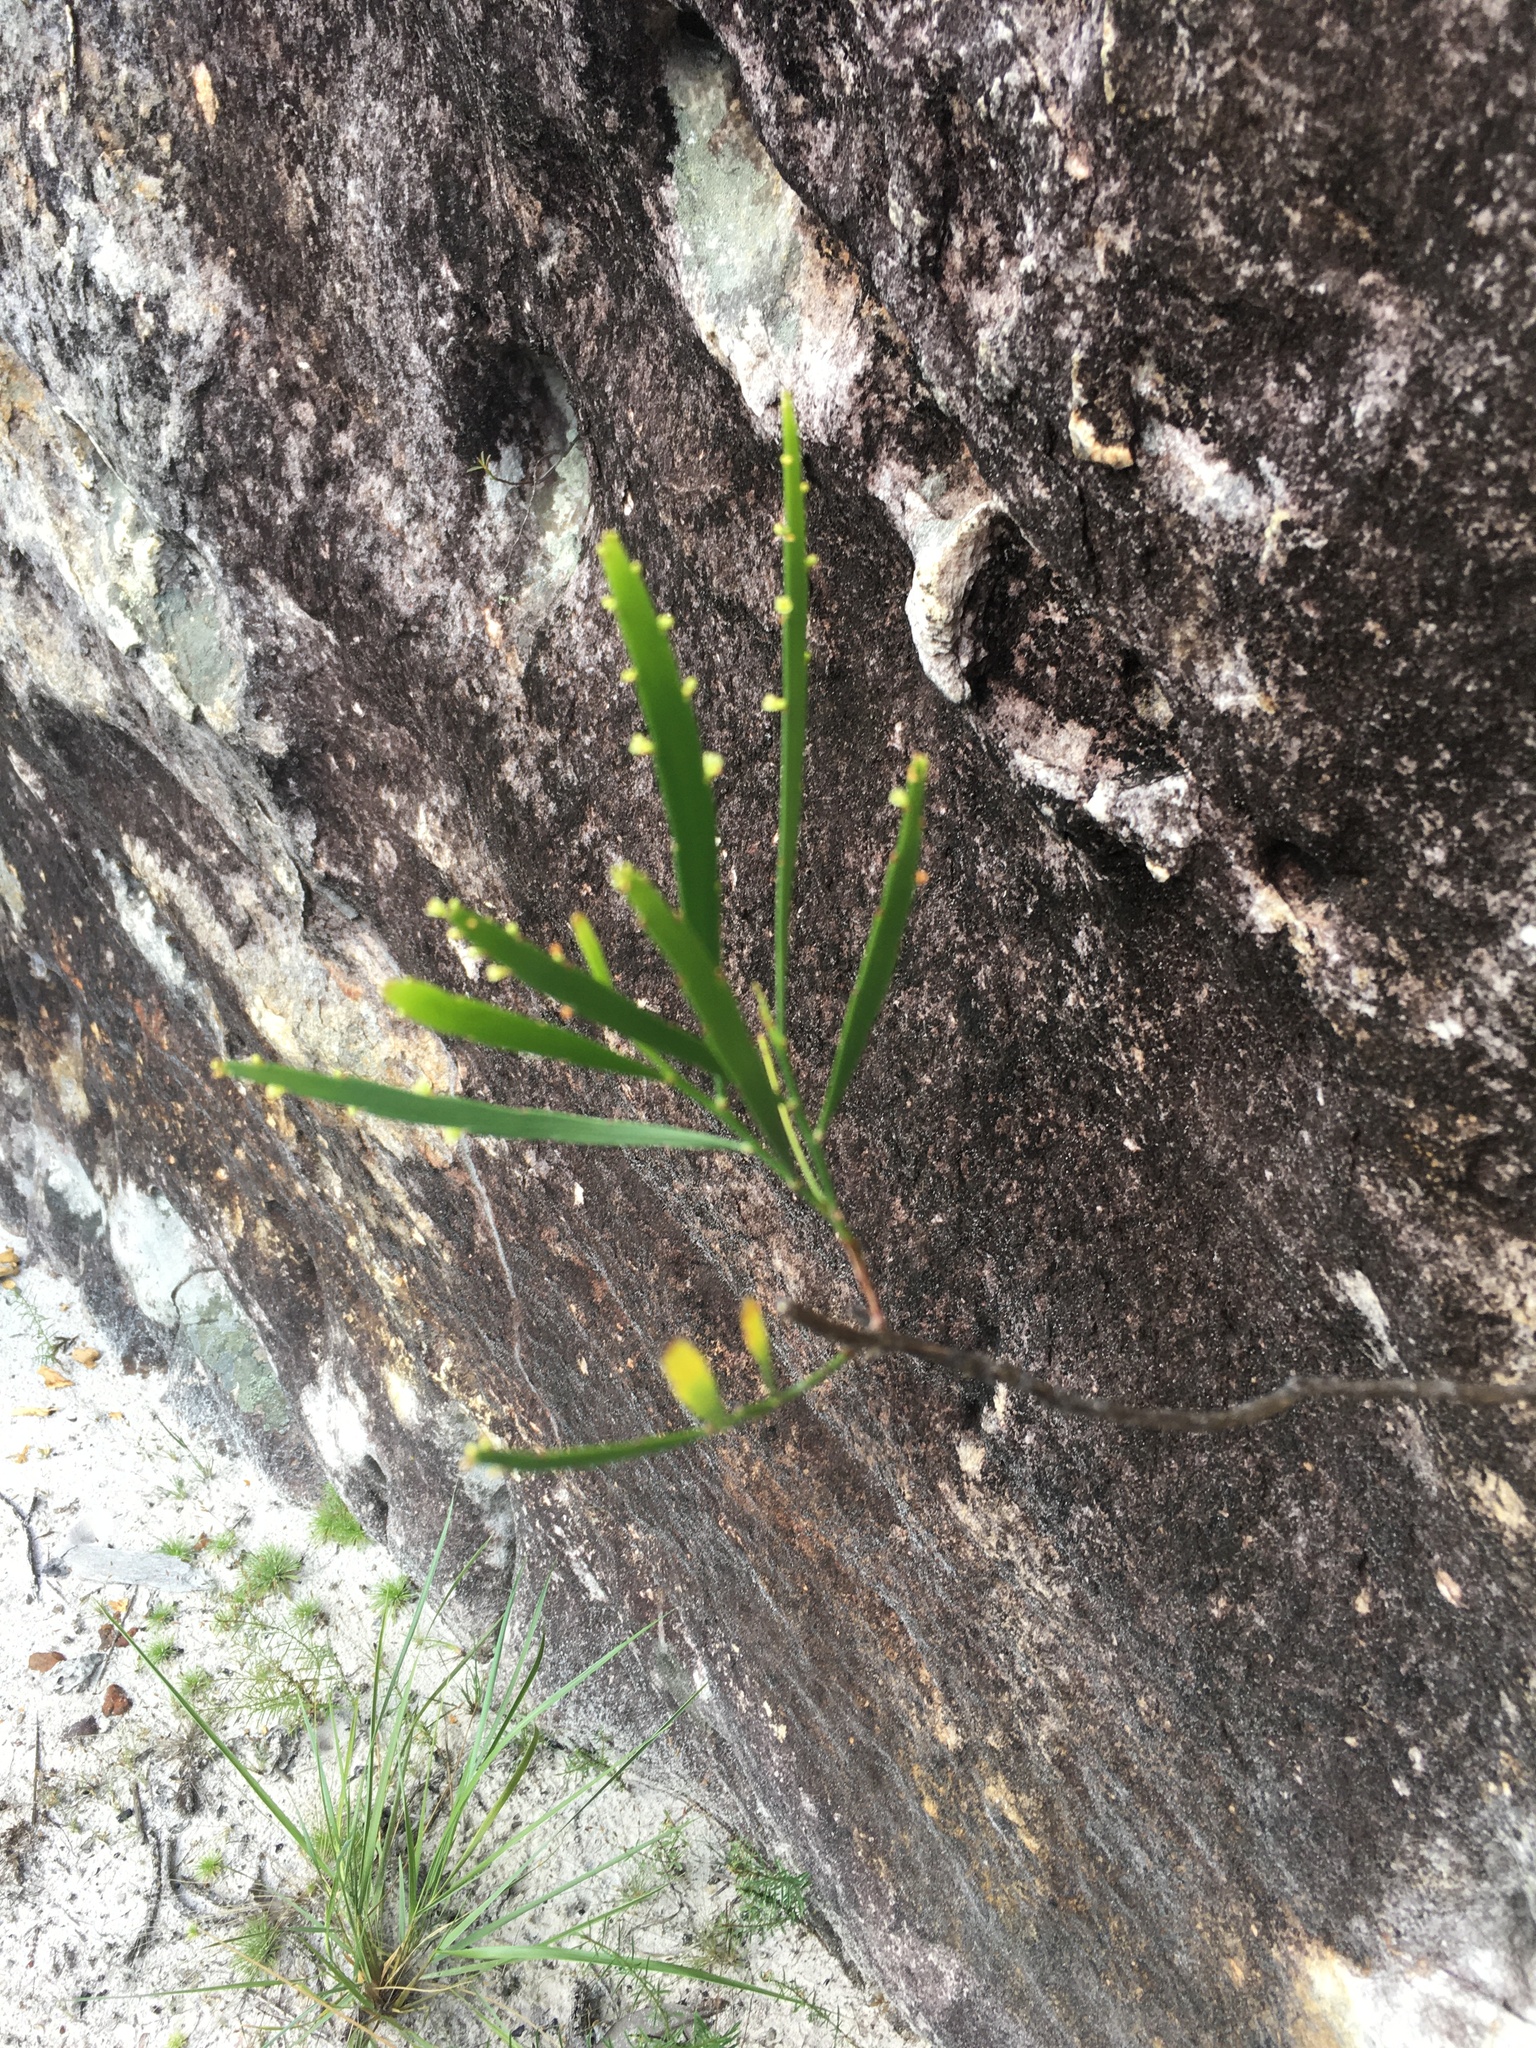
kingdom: Plantae
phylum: Tracheophyta
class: Magnoliopsida
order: Malpighiales
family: Phyllanthaceae
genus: Phyllanthus
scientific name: Phyllanthus robustus
